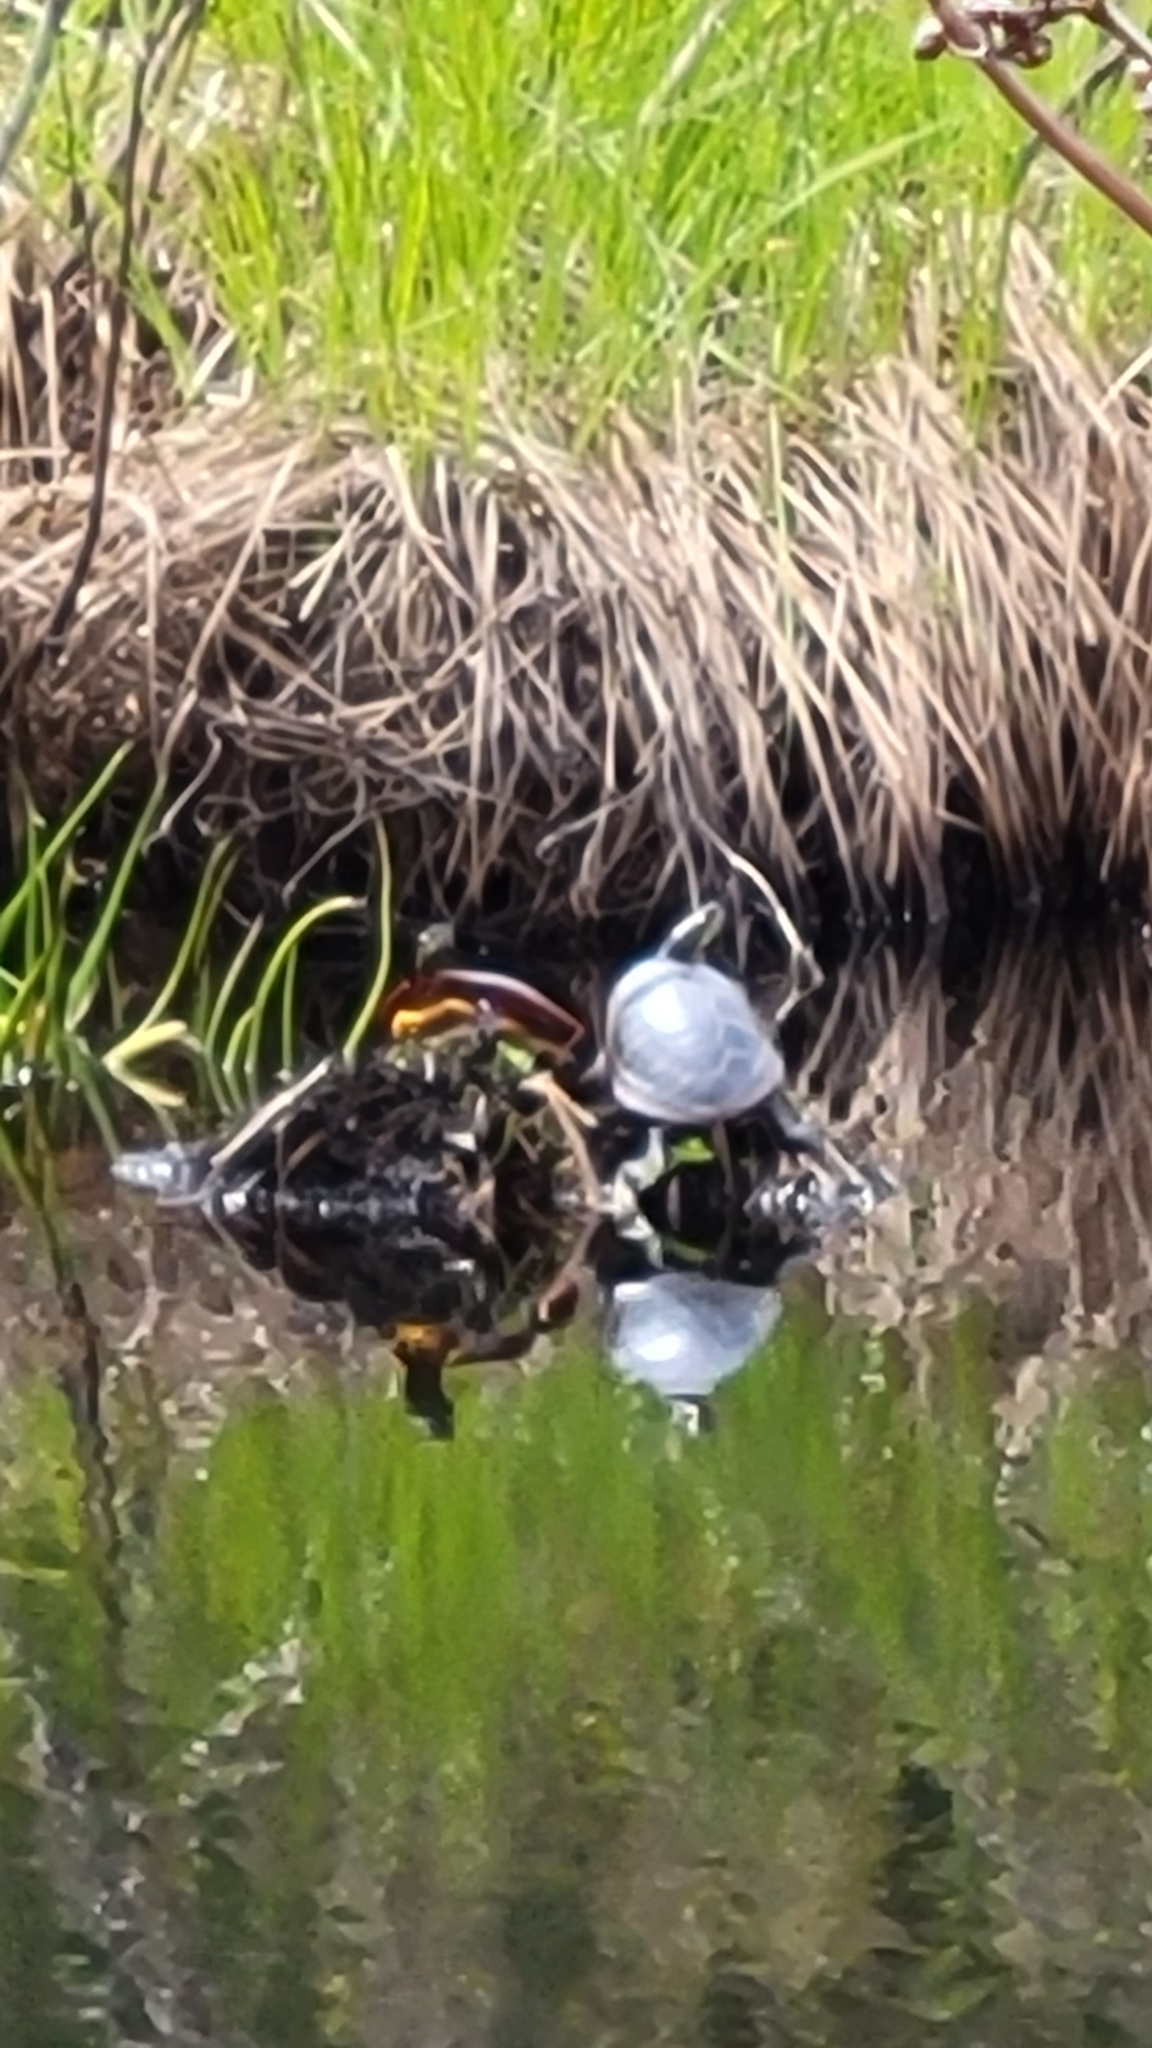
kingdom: Animalia
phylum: Chordata
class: Testudines
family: Emydidae
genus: Chrysemys
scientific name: Chrysemys picta
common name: Painted turtle
